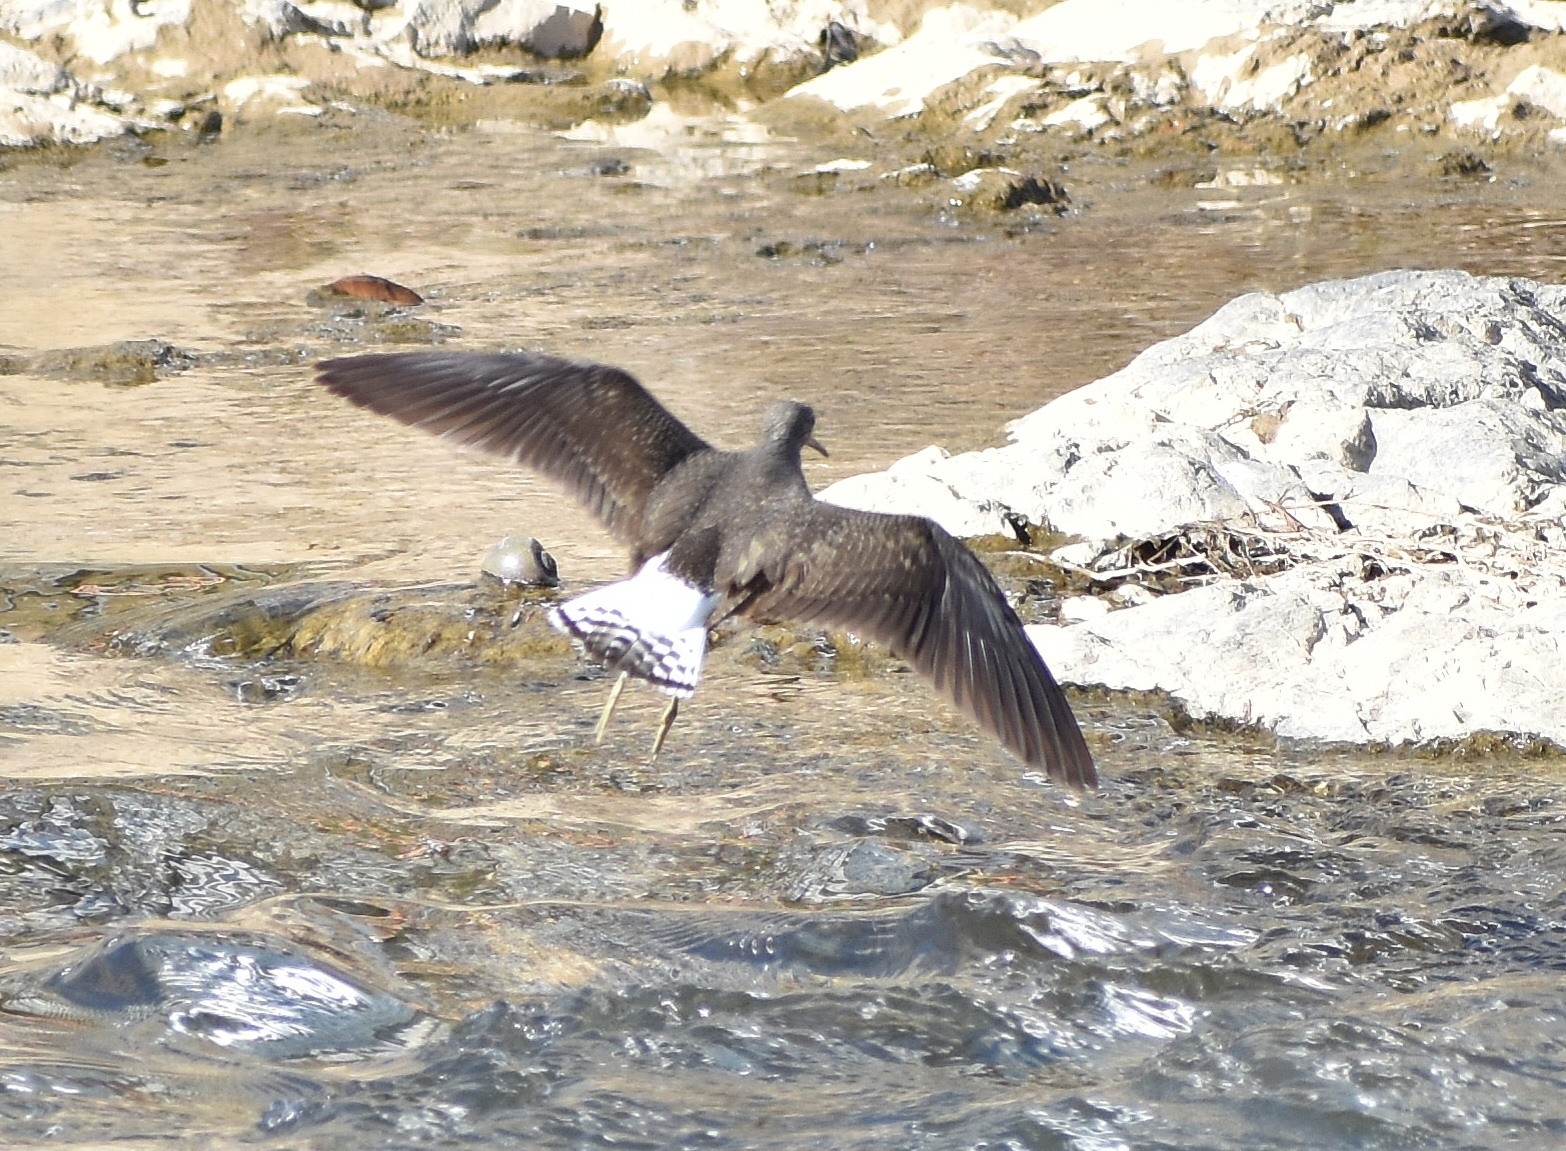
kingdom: Animalia
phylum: Chordata
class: Aves
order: Charadriiformes
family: Scolopacidae
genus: Tringa
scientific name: Tringa ochropus
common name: Green sandpiper
